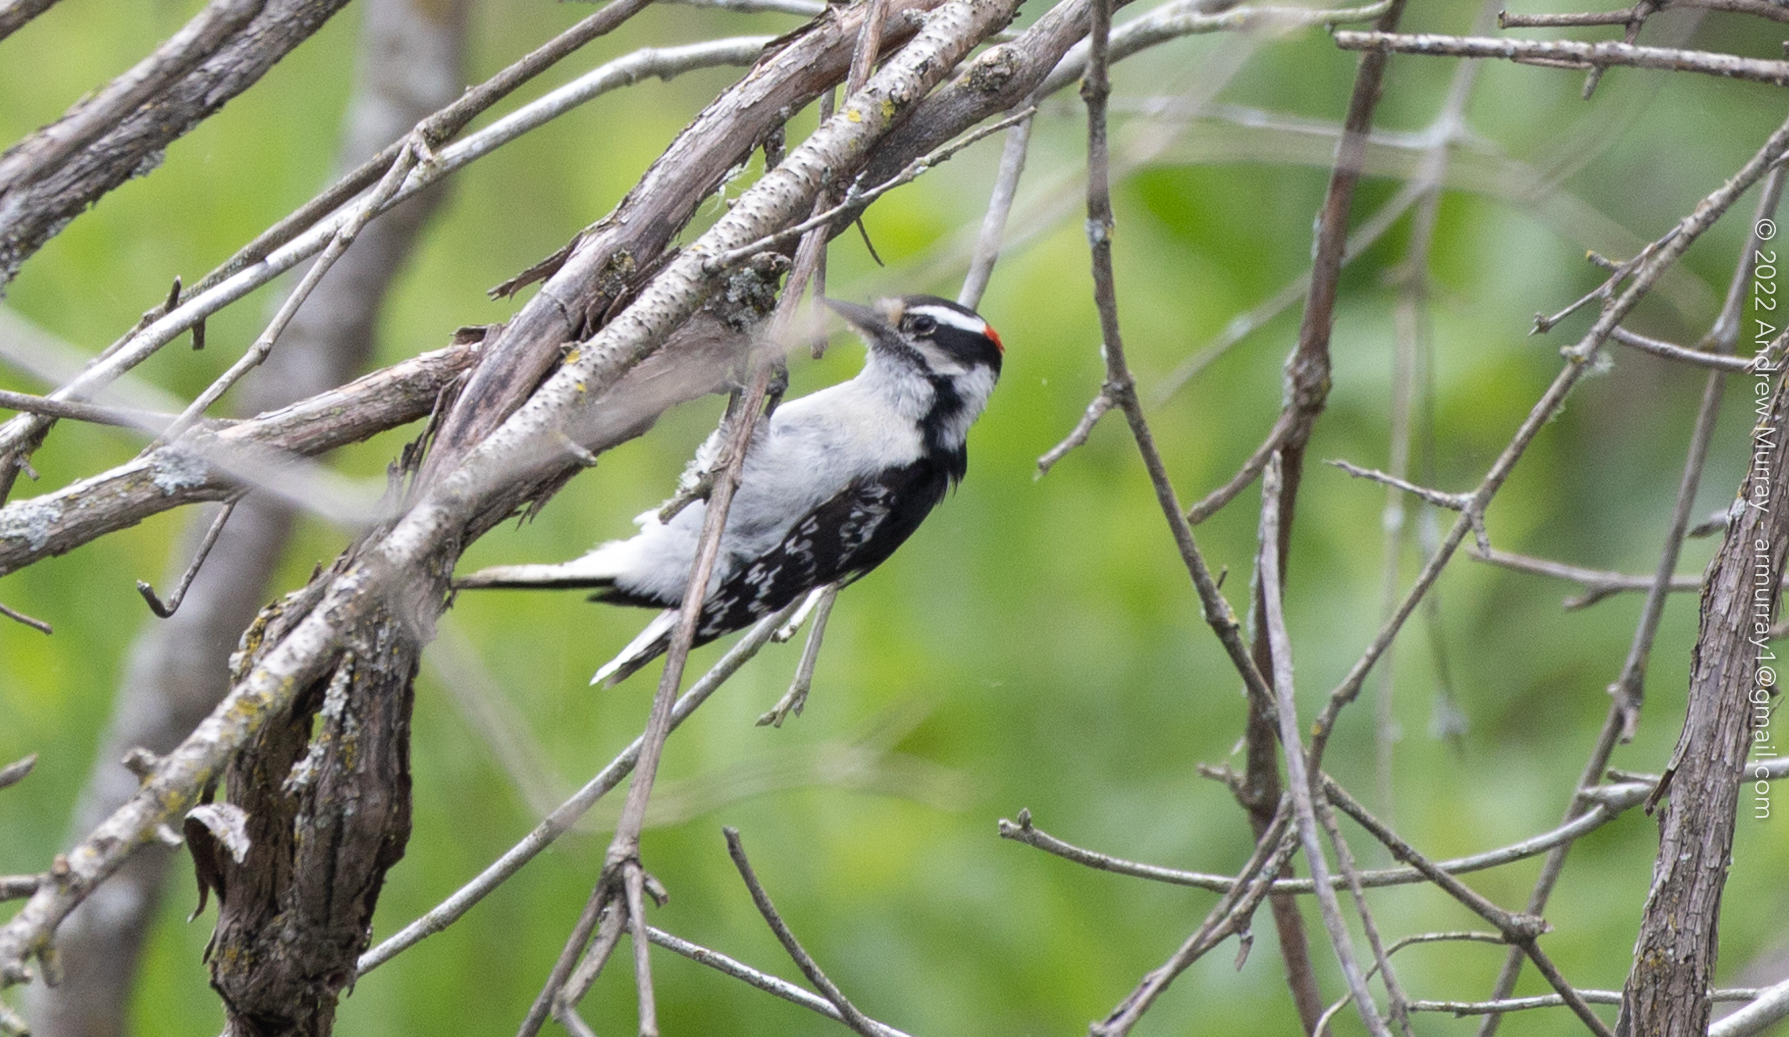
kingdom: Animalia
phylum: Chordata
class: Aves
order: Piciformes
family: Picidae
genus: Dryobates
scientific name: Dryobates pubescens
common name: Downy woodpecker
